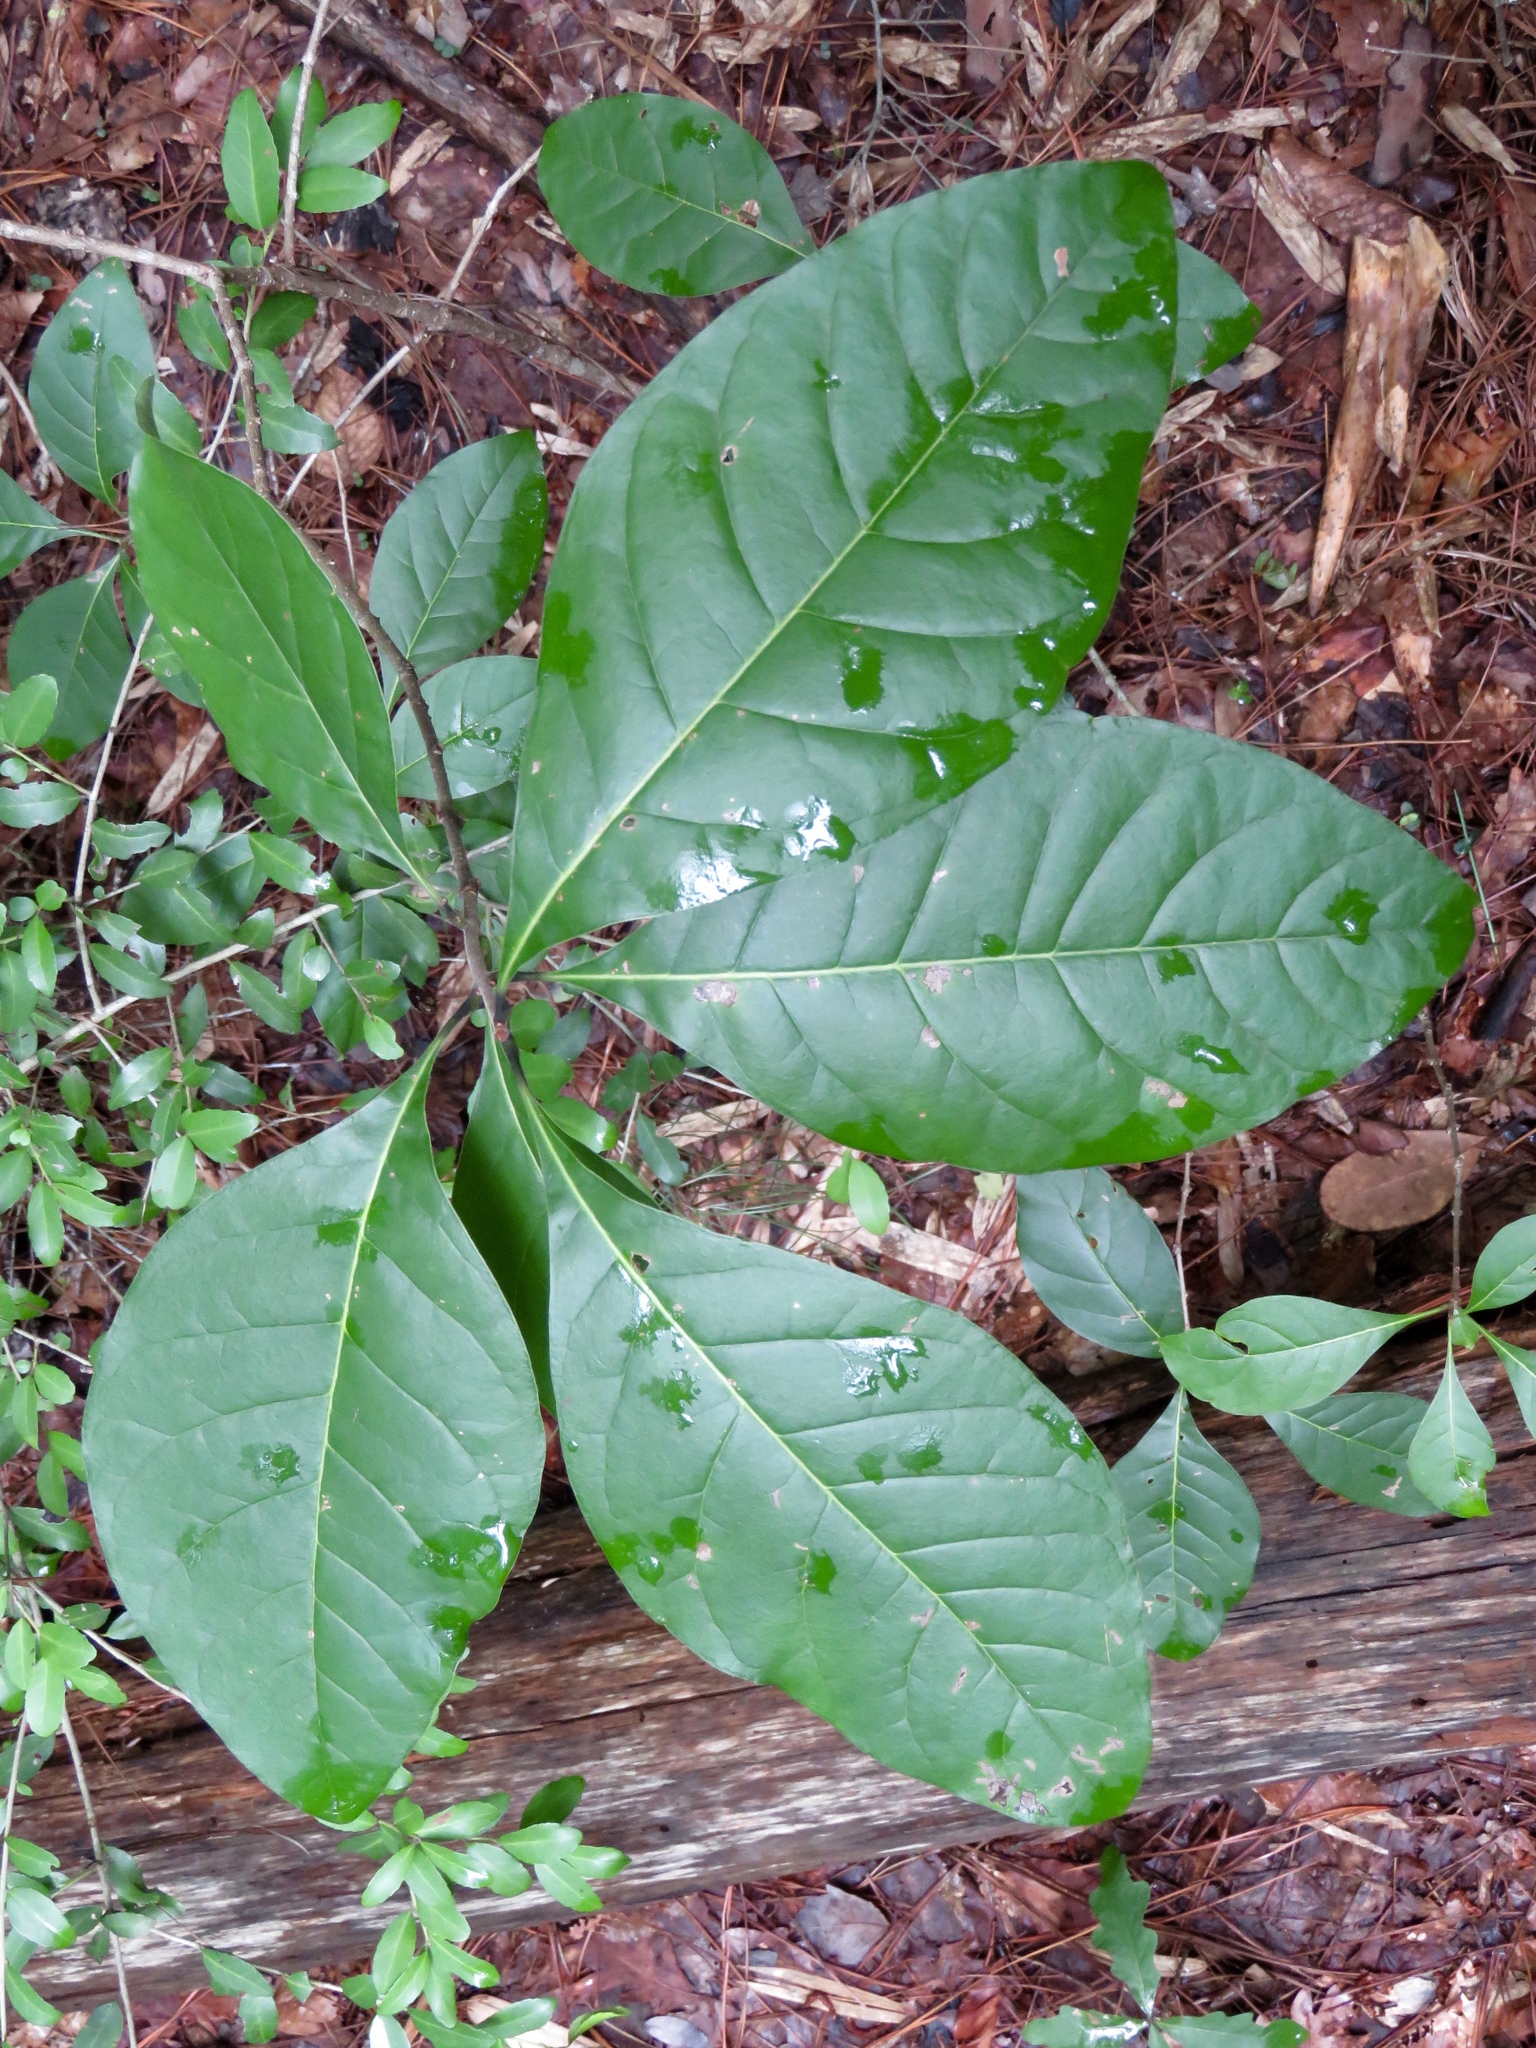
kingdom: Plantae
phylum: Tracheophyta
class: Magnoliopsida
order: Lamiales
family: Oleaceae
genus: Chionanthus
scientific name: Chionanthus virginicus
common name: American fringetree
